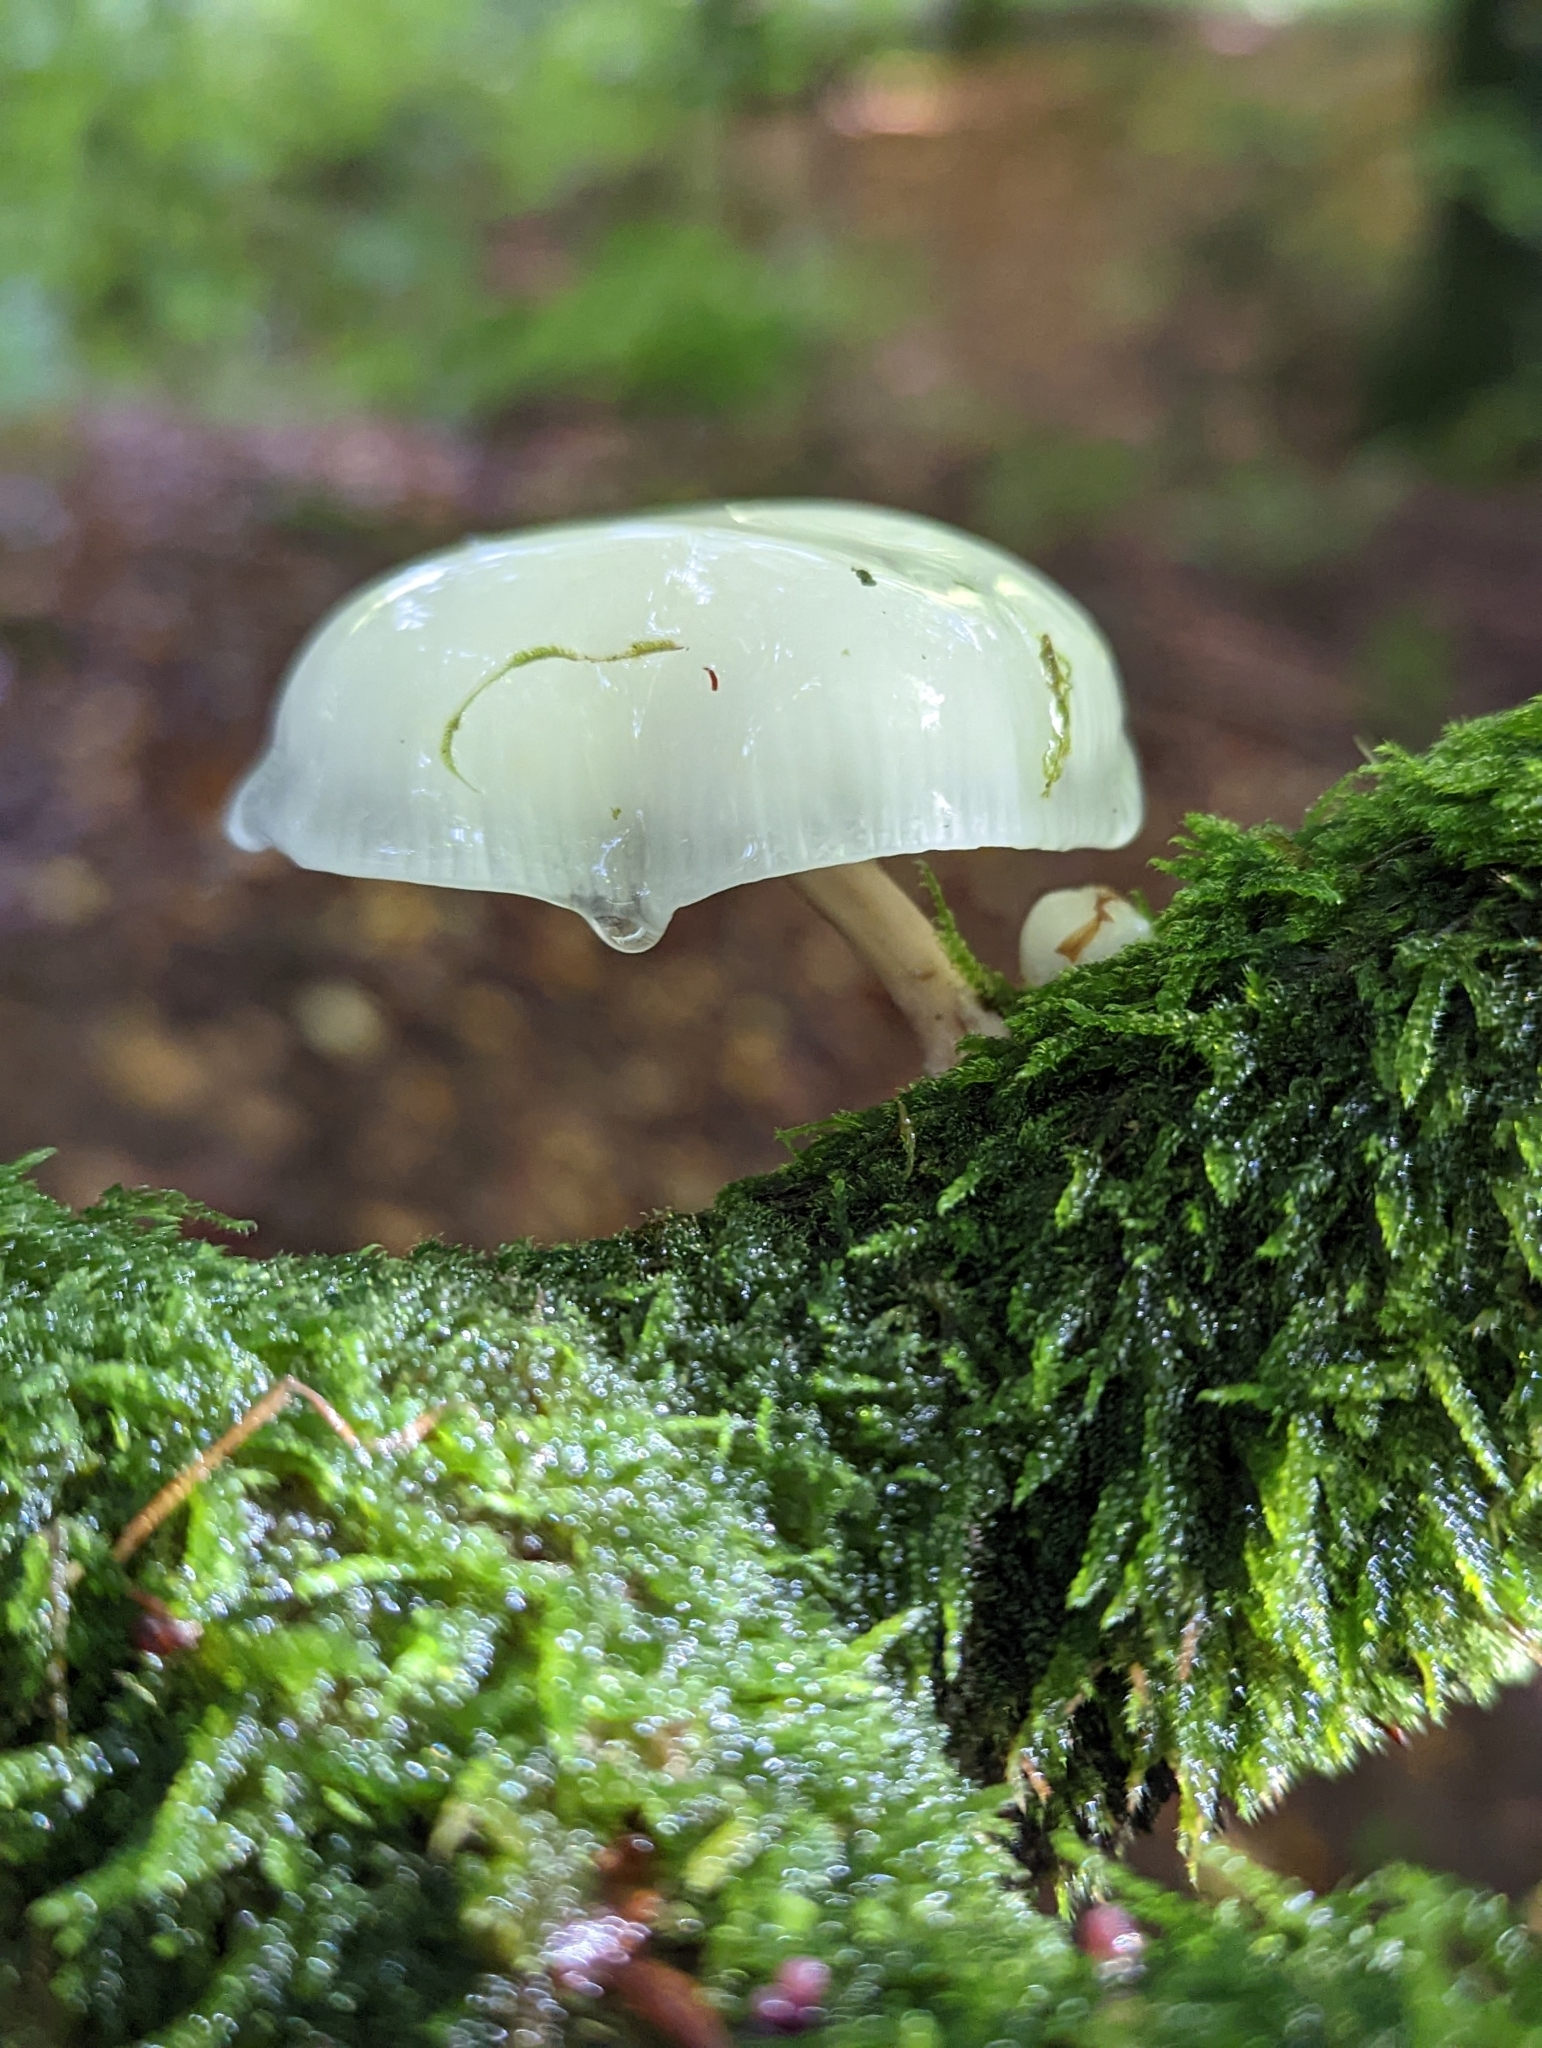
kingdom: Fungi
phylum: Basidiomycota
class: Agaricomycetes
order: Agaricales
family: Physalacriaceae
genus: Mucidula
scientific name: Mucidula mucida
